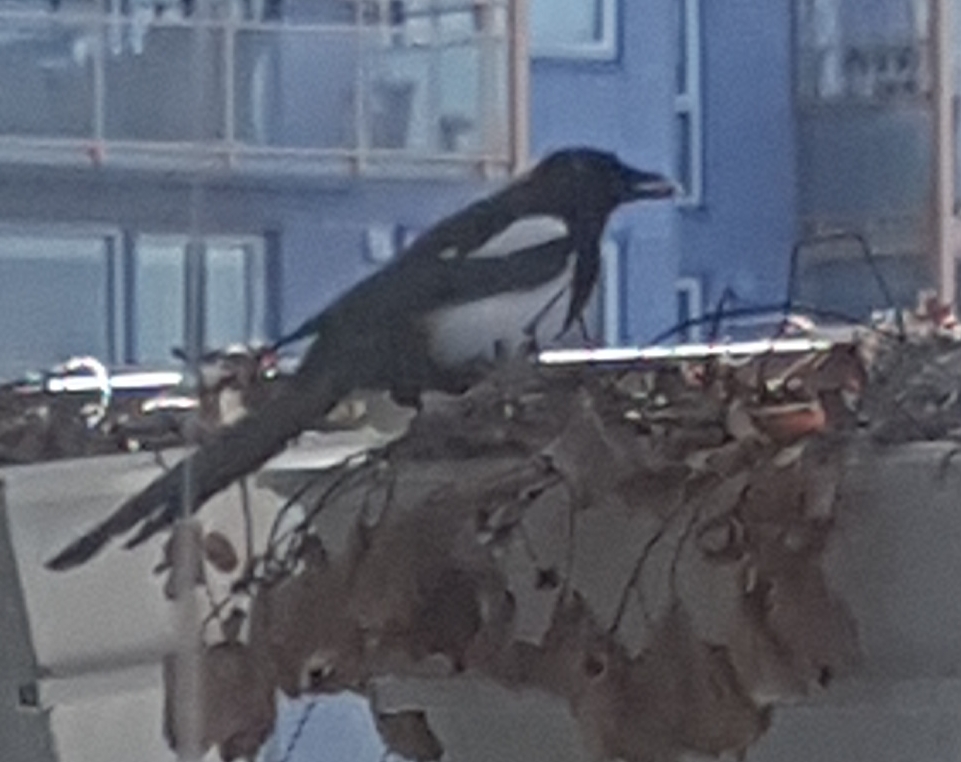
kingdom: Animalia
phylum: Chordata
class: Aves
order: Passeriformes
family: Corvidae
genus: Pica
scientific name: Pica pica
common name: Eurasian magpie
